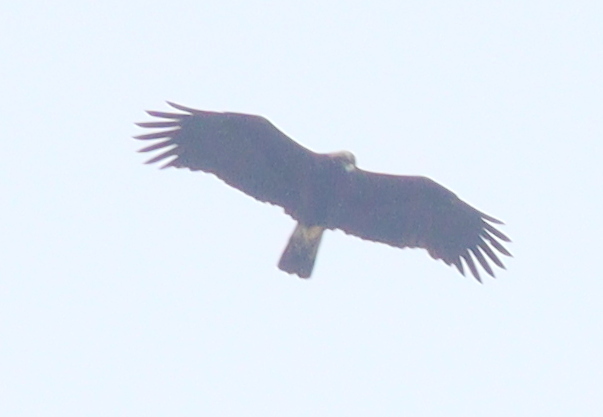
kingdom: Animalia
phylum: Chordata
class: Aves
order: Accipitriformes
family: Accipitridae
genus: Aquila
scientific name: Aquila heliaca
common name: Eastern imperial eagle
